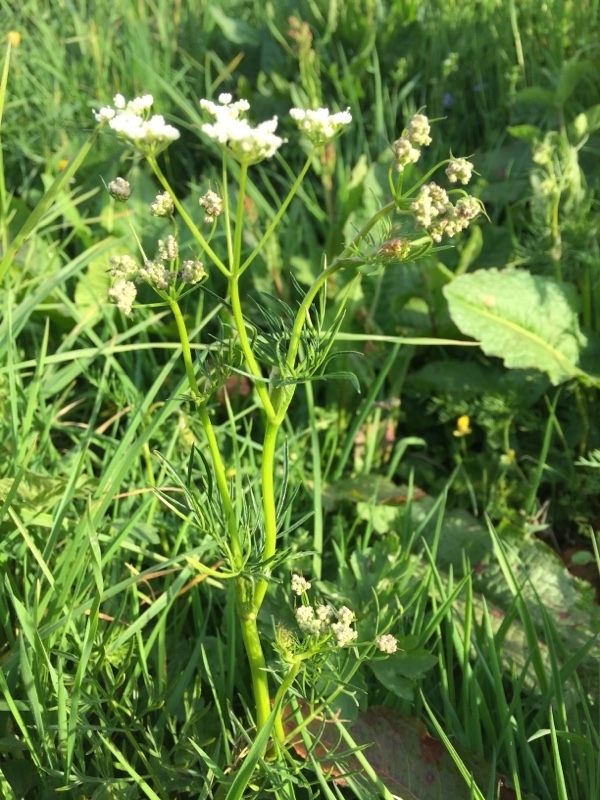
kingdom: Plantae
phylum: Tracheophyta
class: Magnoliopsida
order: Apiales
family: Apiaceae
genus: Conopodium
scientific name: Conopodium majus
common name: Pignut
